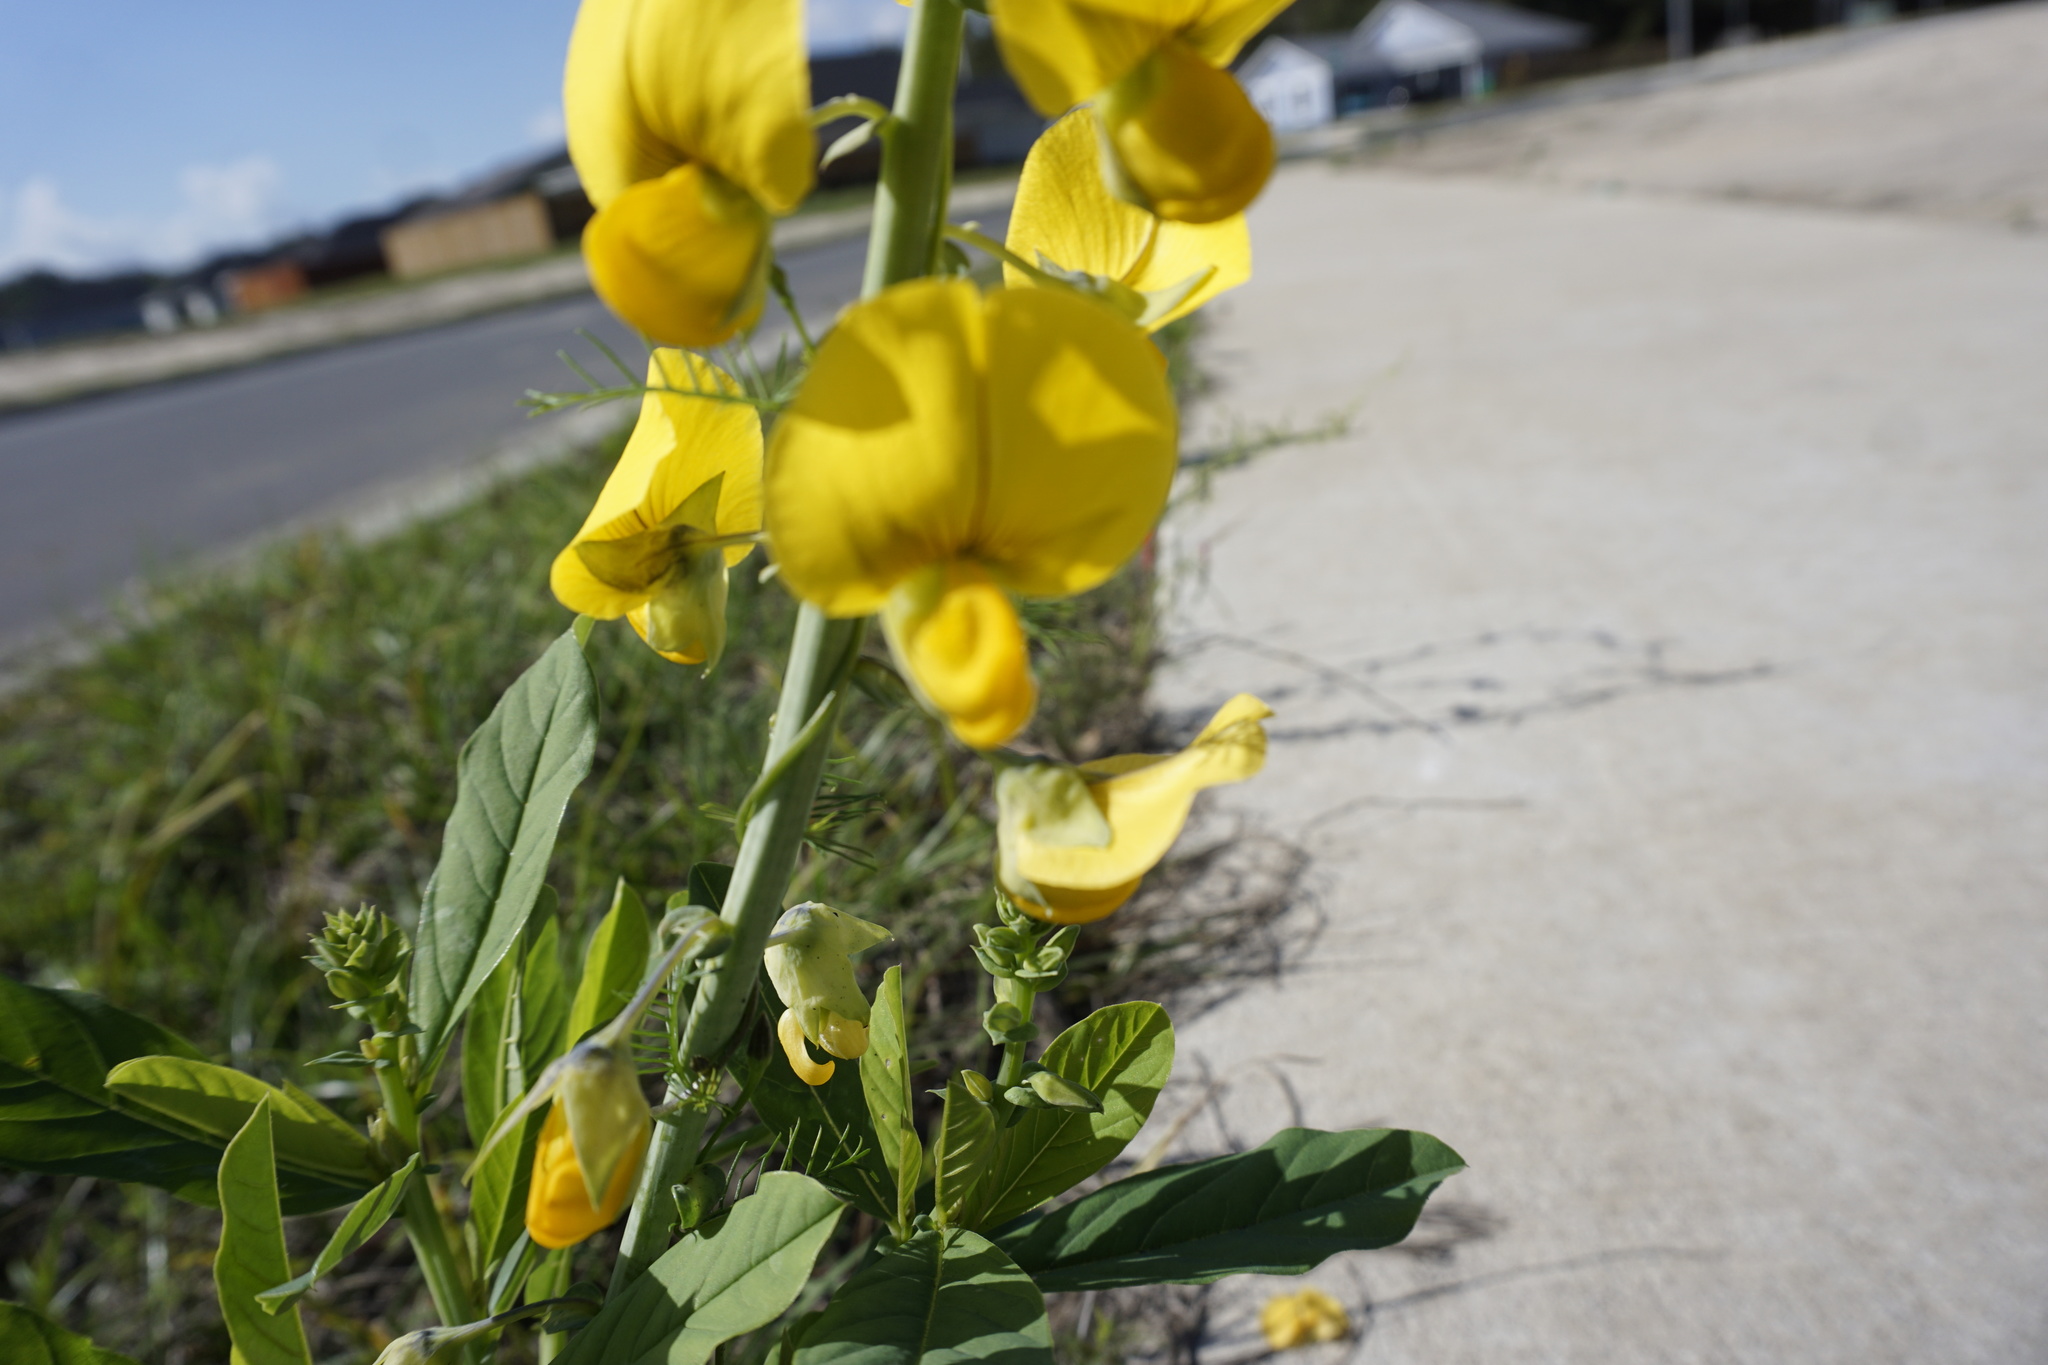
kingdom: Plantae
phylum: Tracheophyta
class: Magnoliopsida
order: Fabales
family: Fabaceae
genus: Crotalaria
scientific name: Crotalaria spectabilis
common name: Showy rattlebox
